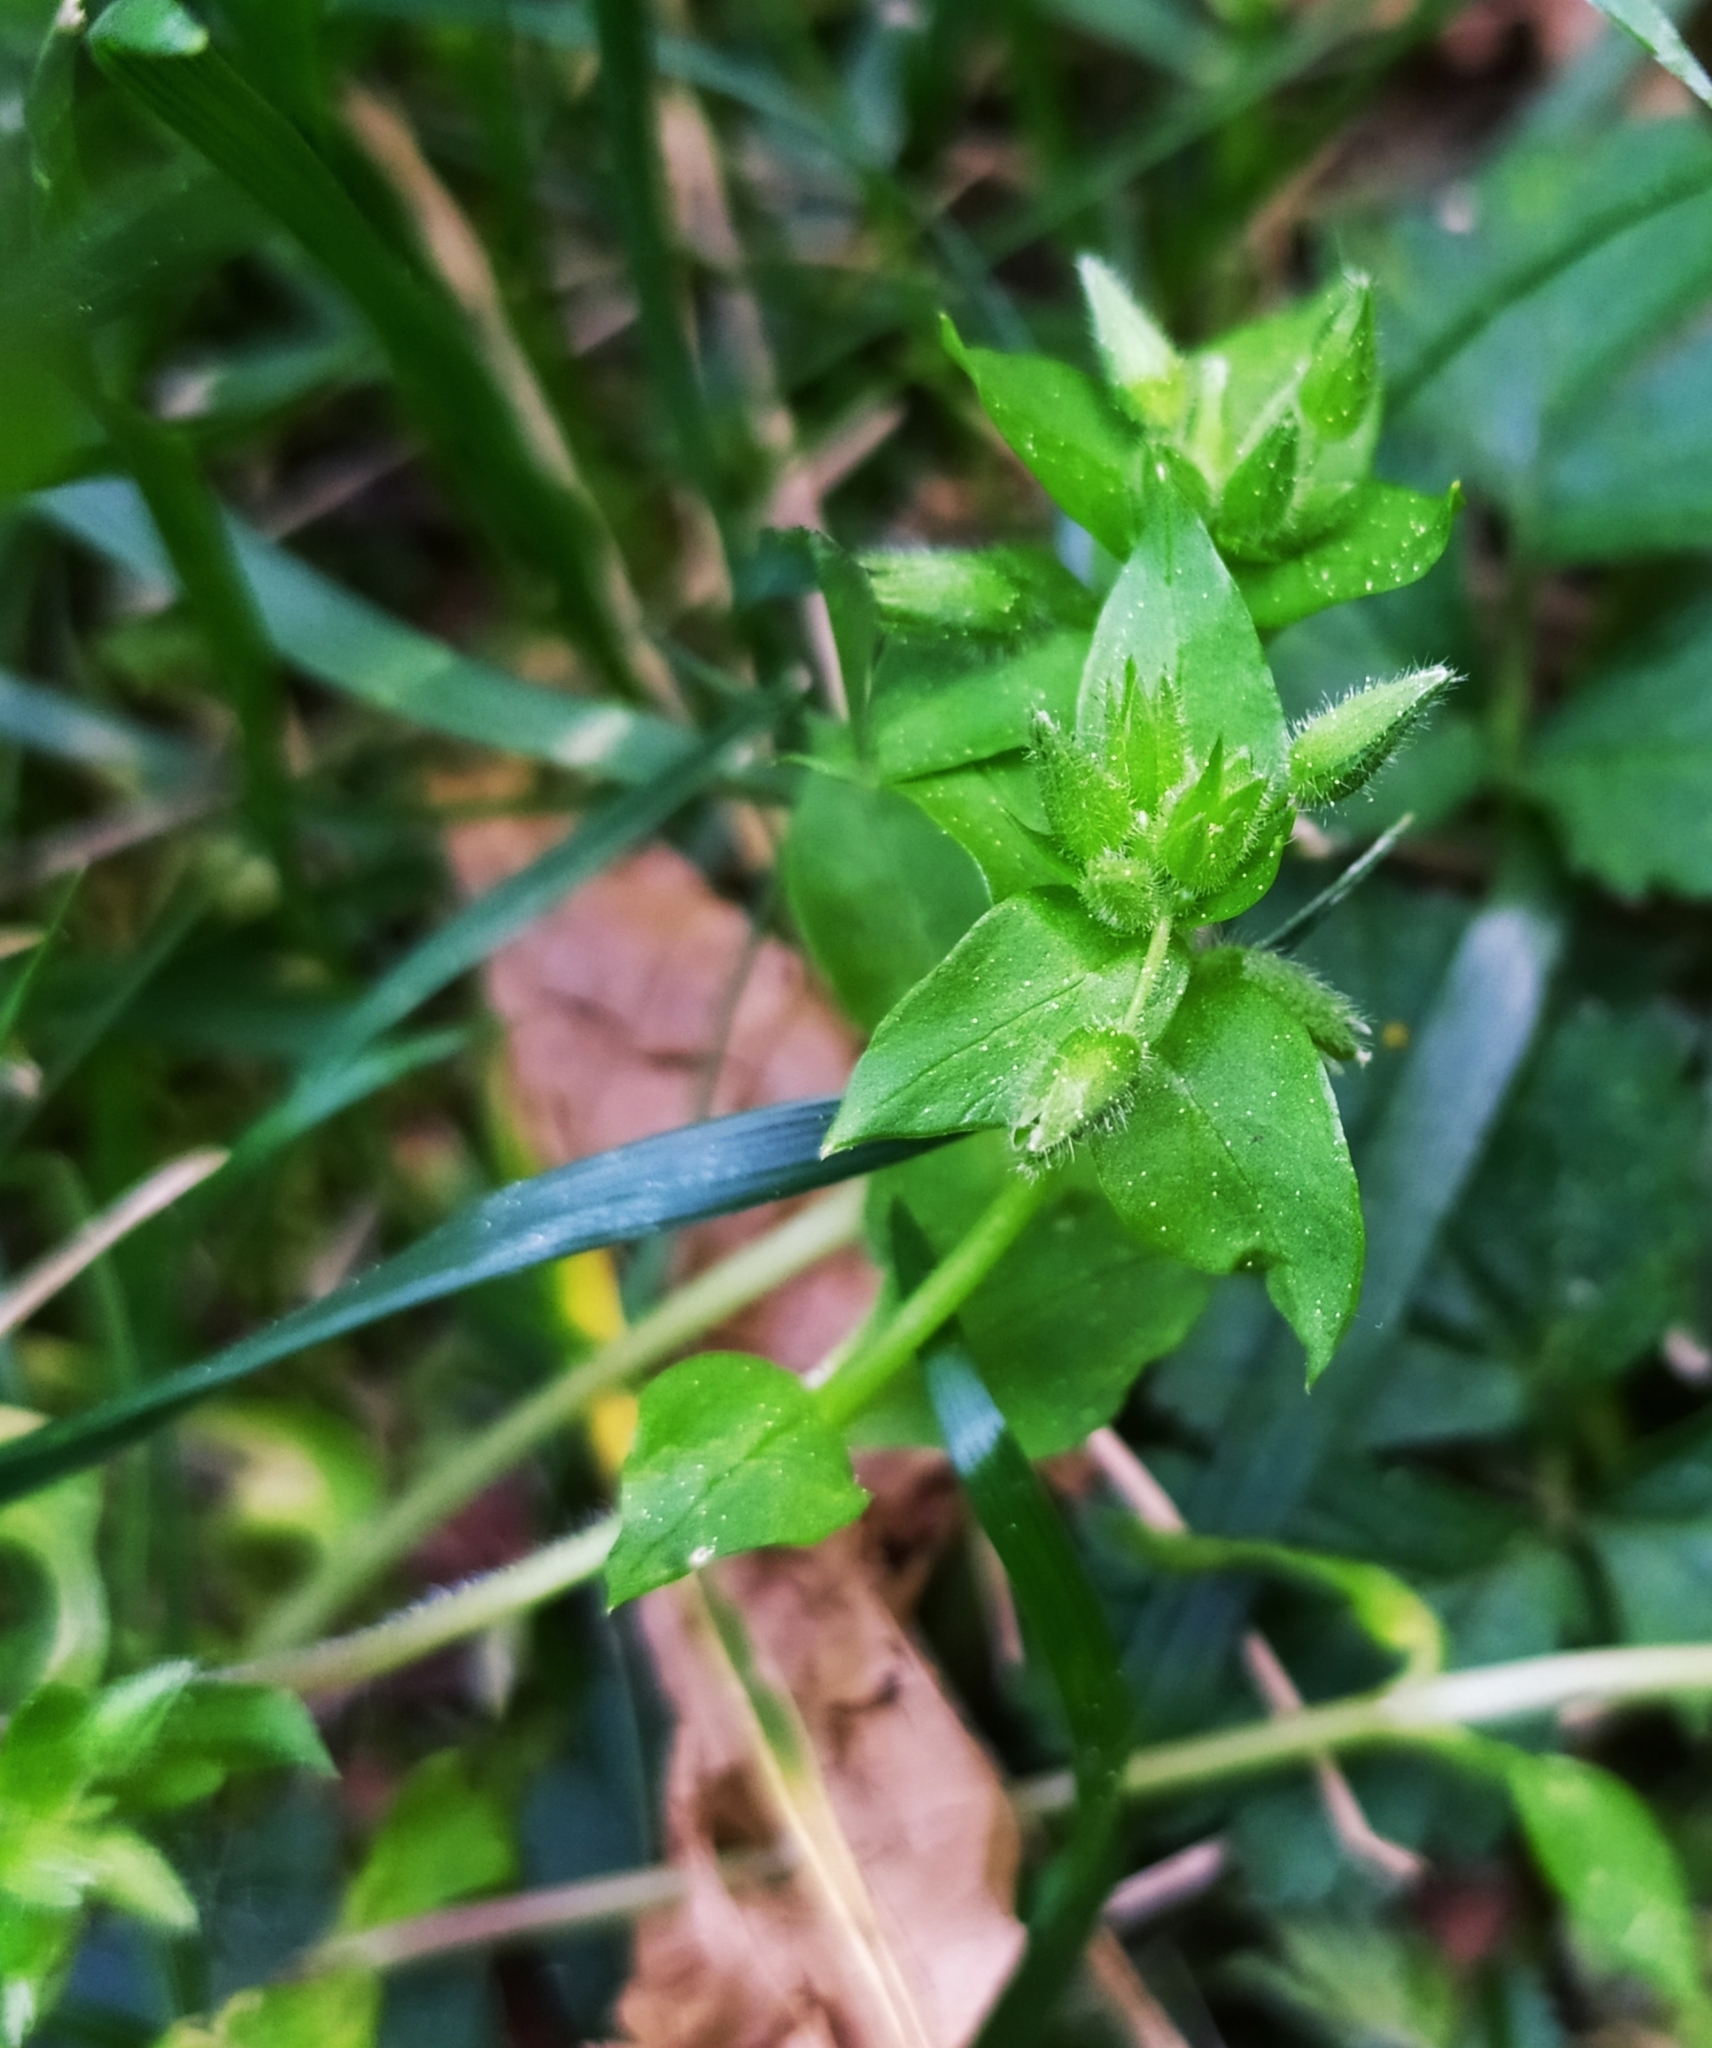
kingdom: Plantae
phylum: Tracheophyta
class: Magnoliopsida
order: Caryophyllales
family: Caryophyllaceae
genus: Stellaria
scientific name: Stellaria apetala
